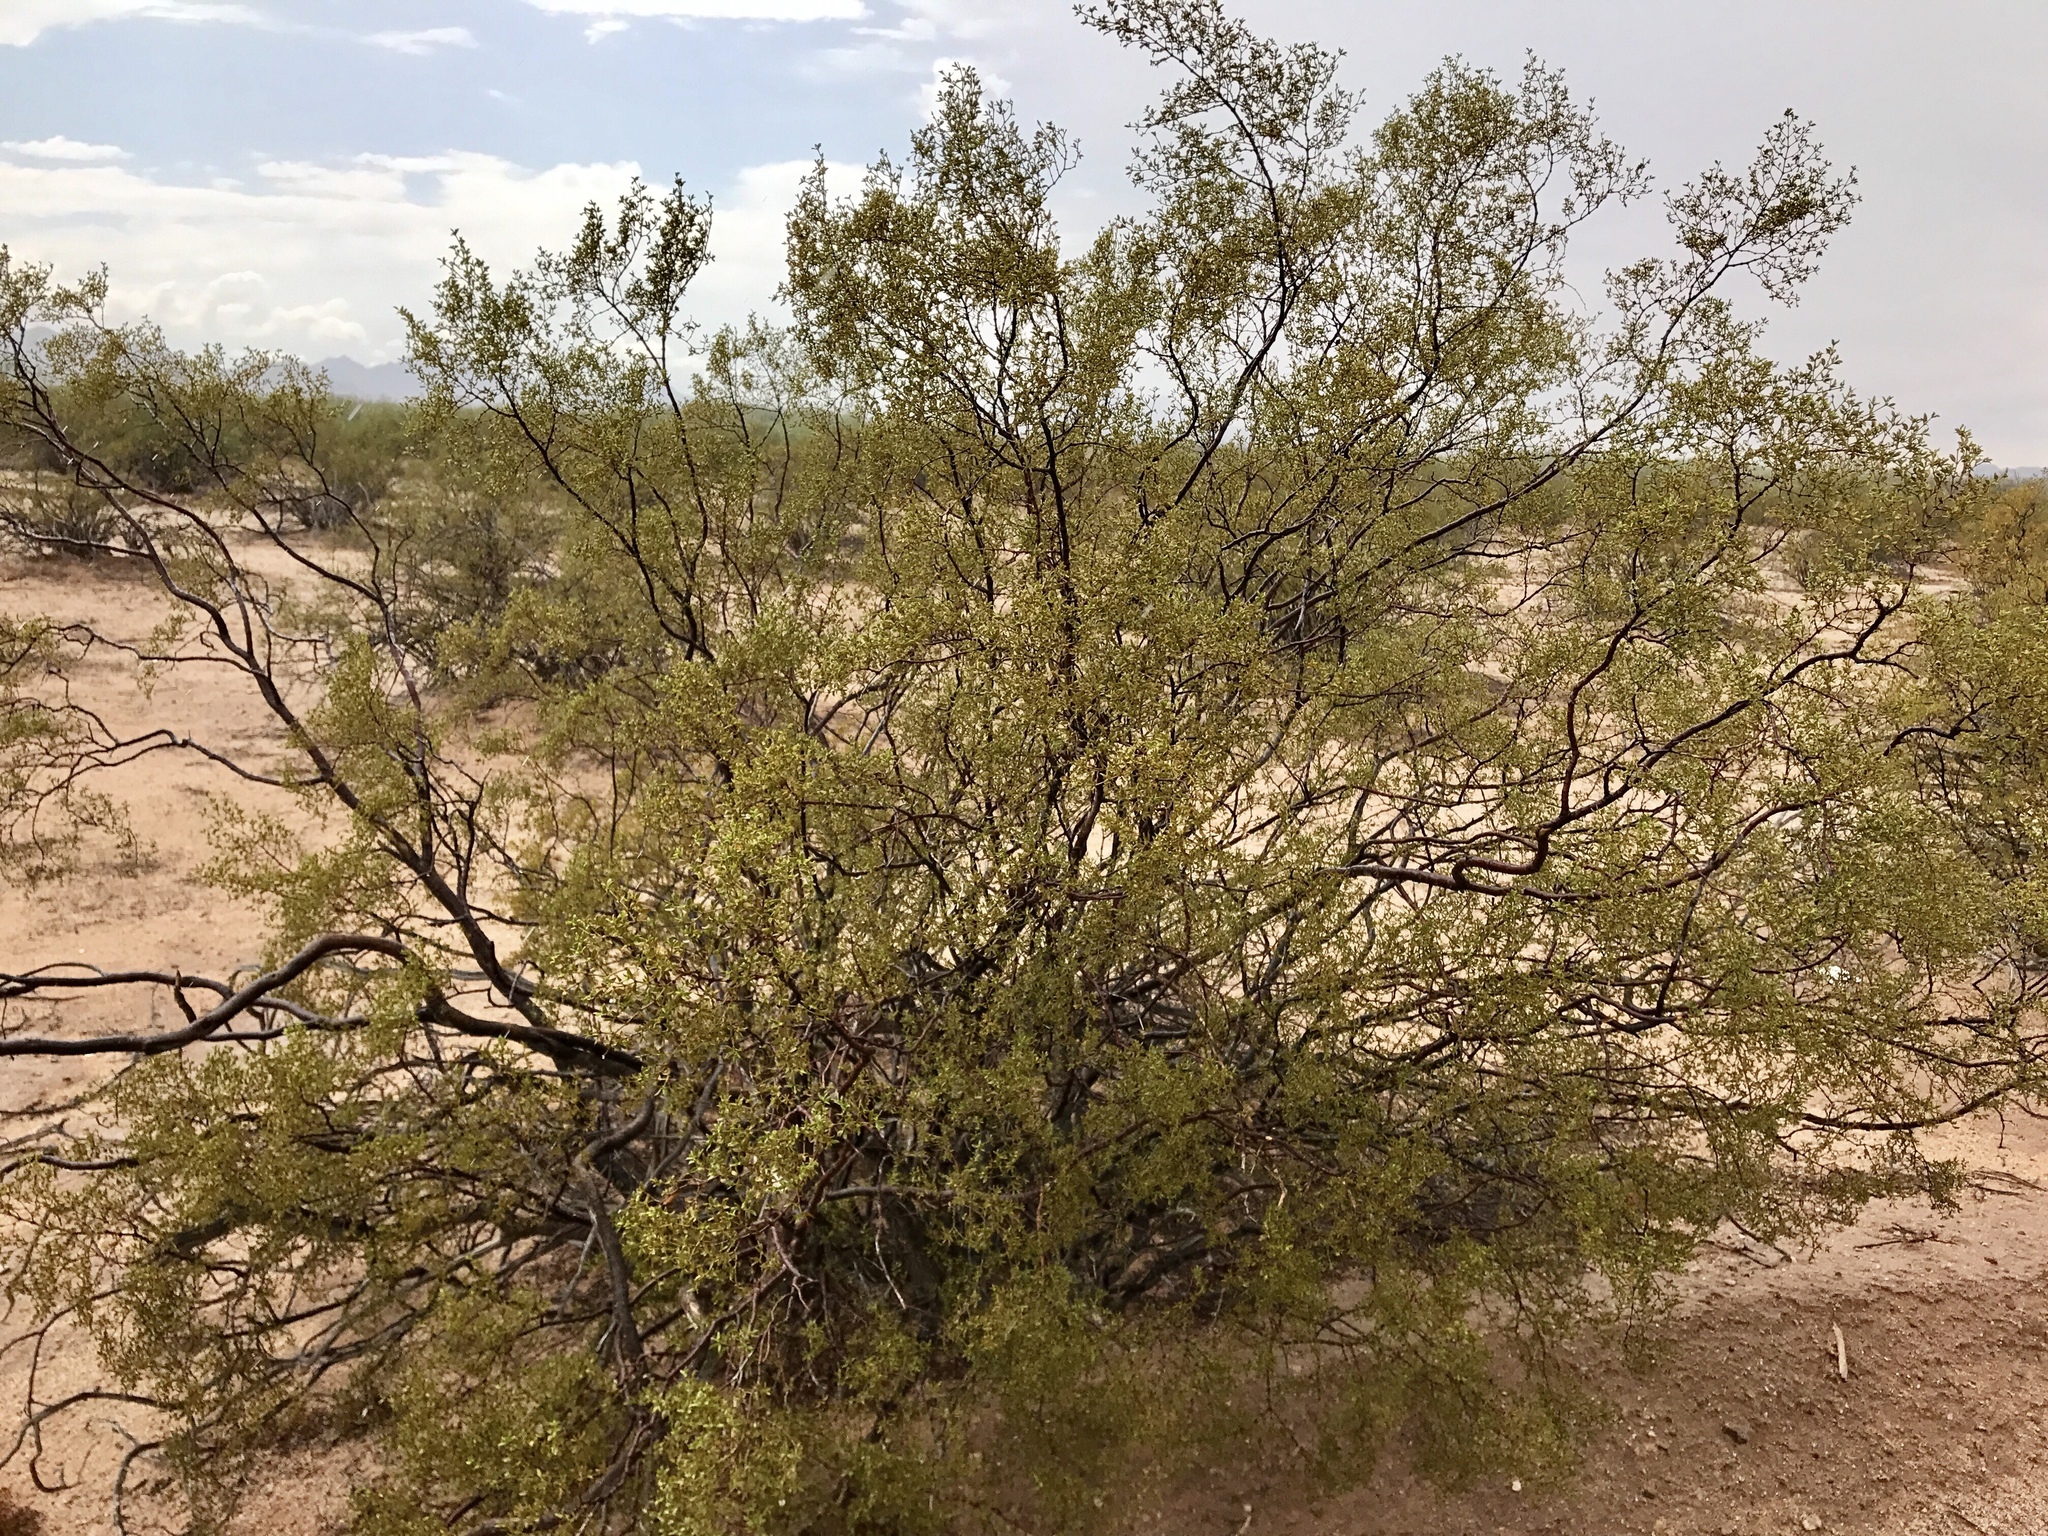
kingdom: Plantae
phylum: Tracheophyta
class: Magnoliopsida
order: Zygophyllales
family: Zygophyllaceae
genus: Larrea
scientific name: Larrea tridentata
